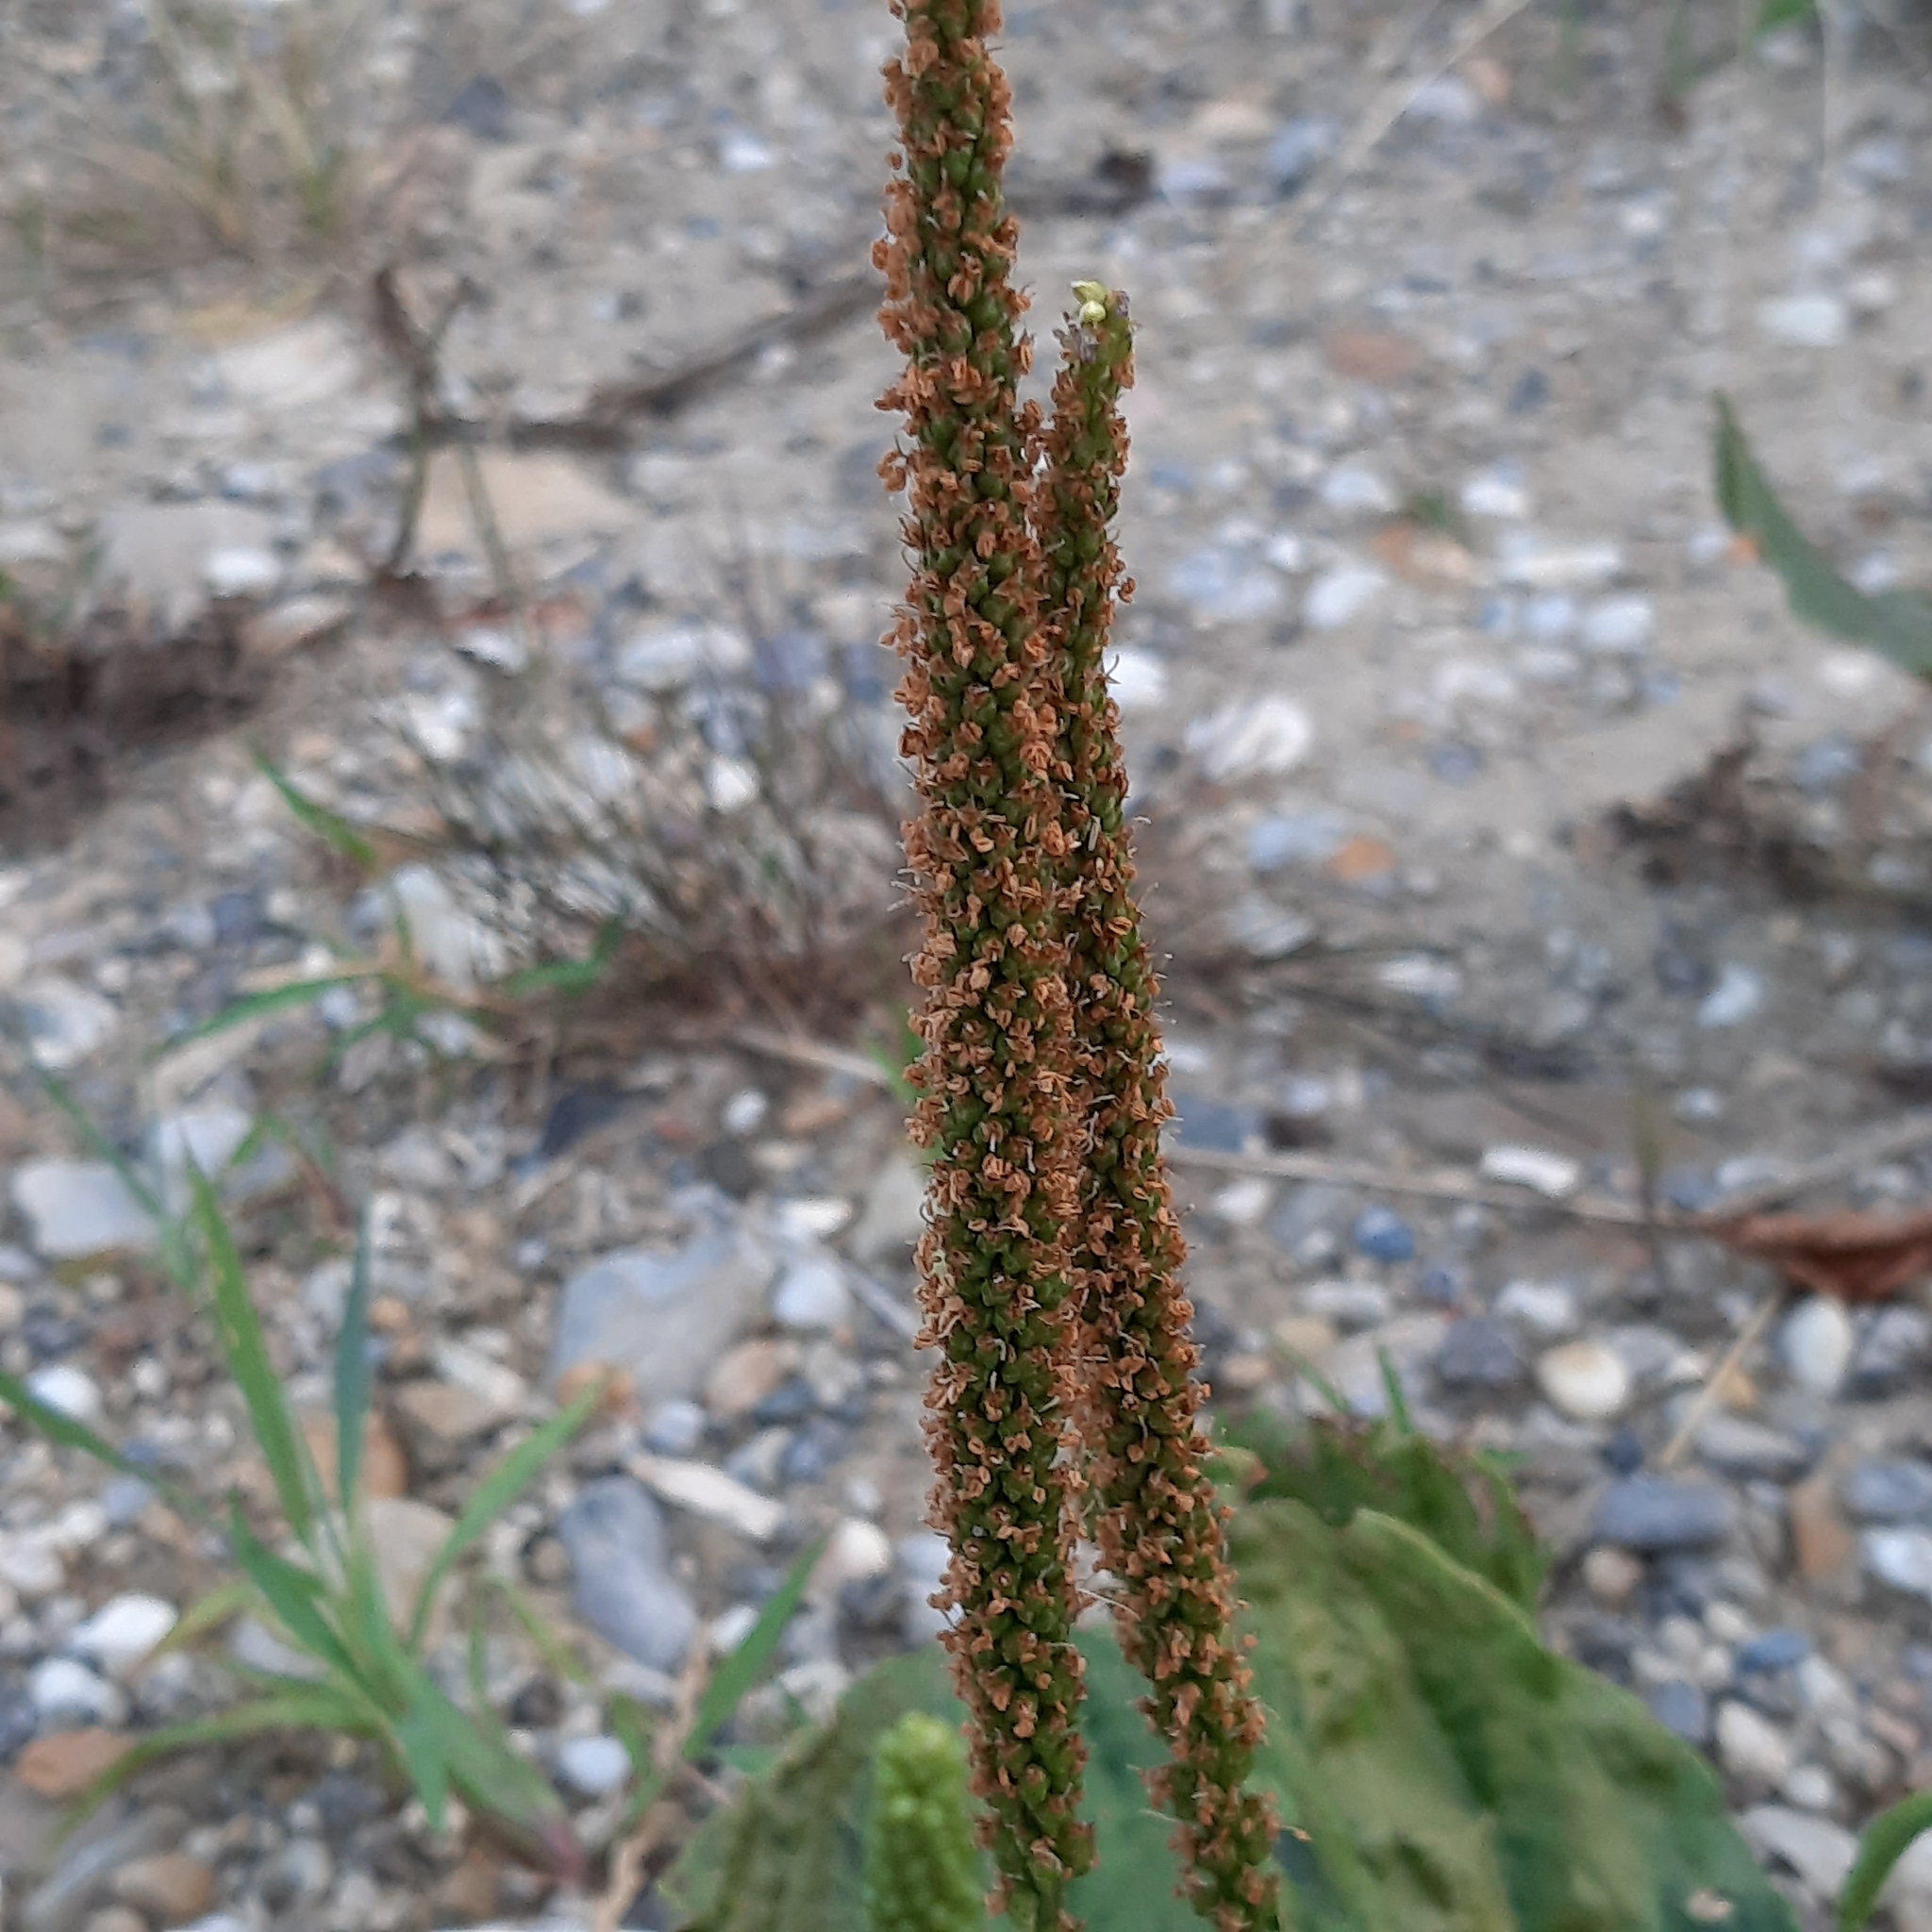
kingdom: Plantae
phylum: Tracheophyta
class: Magnoliopsida
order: Lamiales
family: Plantaginaceae
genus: Plantago
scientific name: Plantago major
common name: Common plantain
